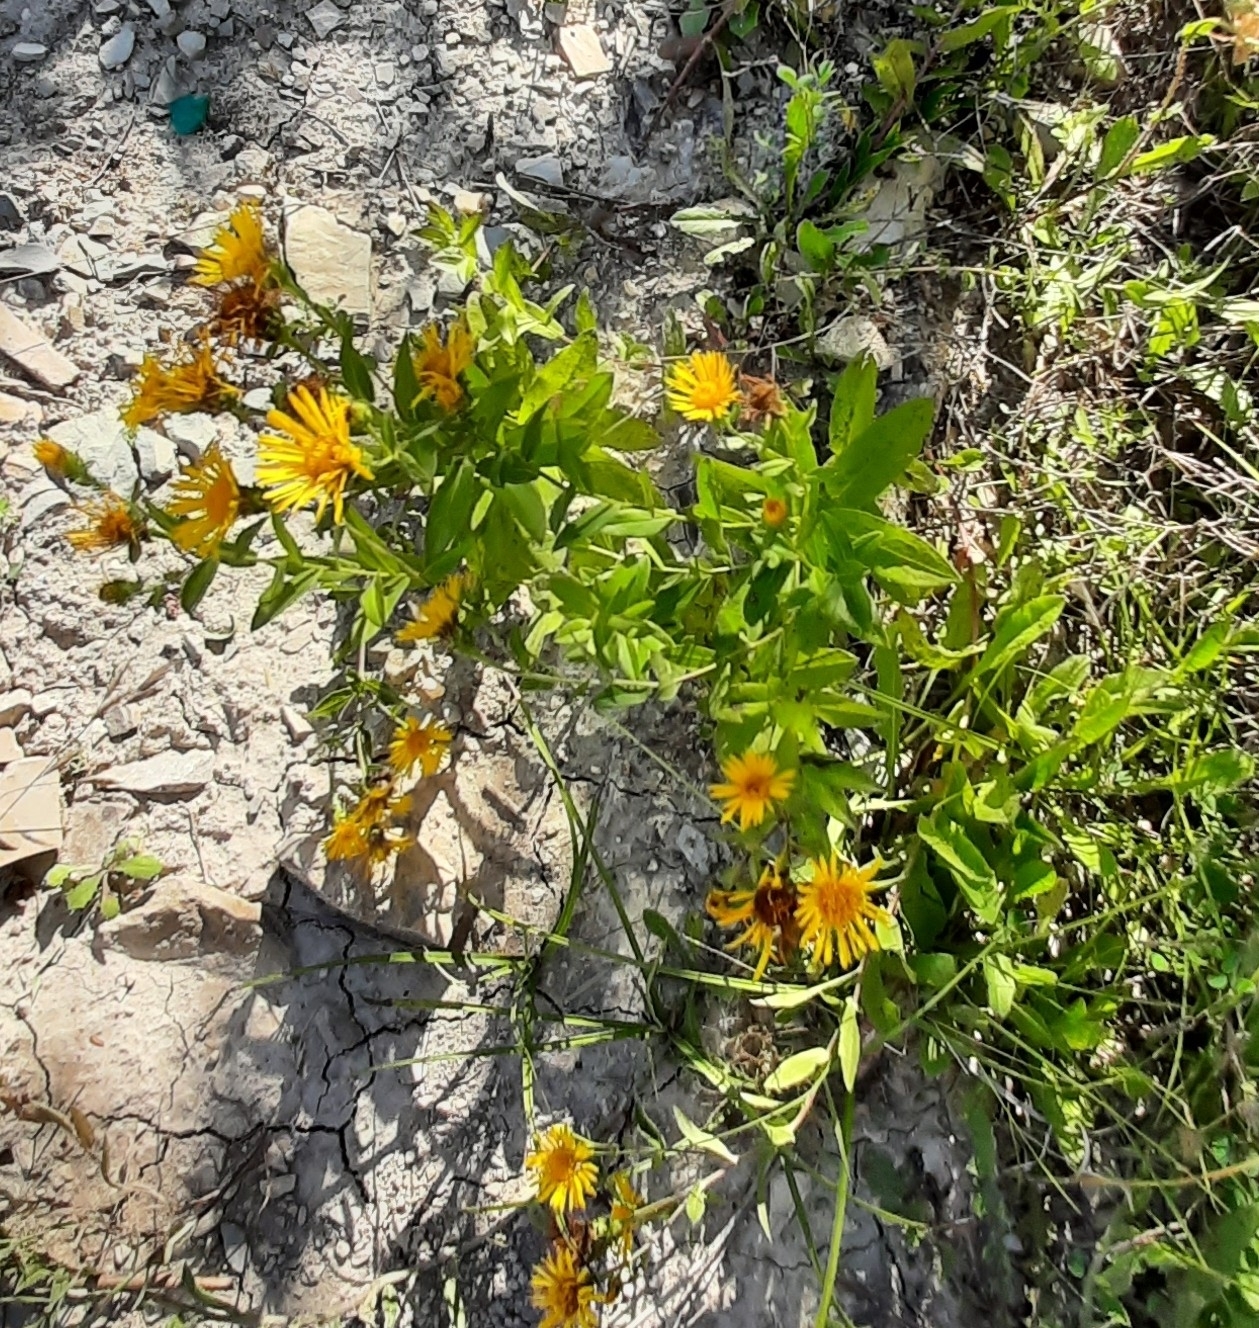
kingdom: Plantae
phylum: Tracheophyta
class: Magnoliopsida
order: Asterales
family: Asteraceae
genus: Pentanema
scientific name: Pentanema asperum
